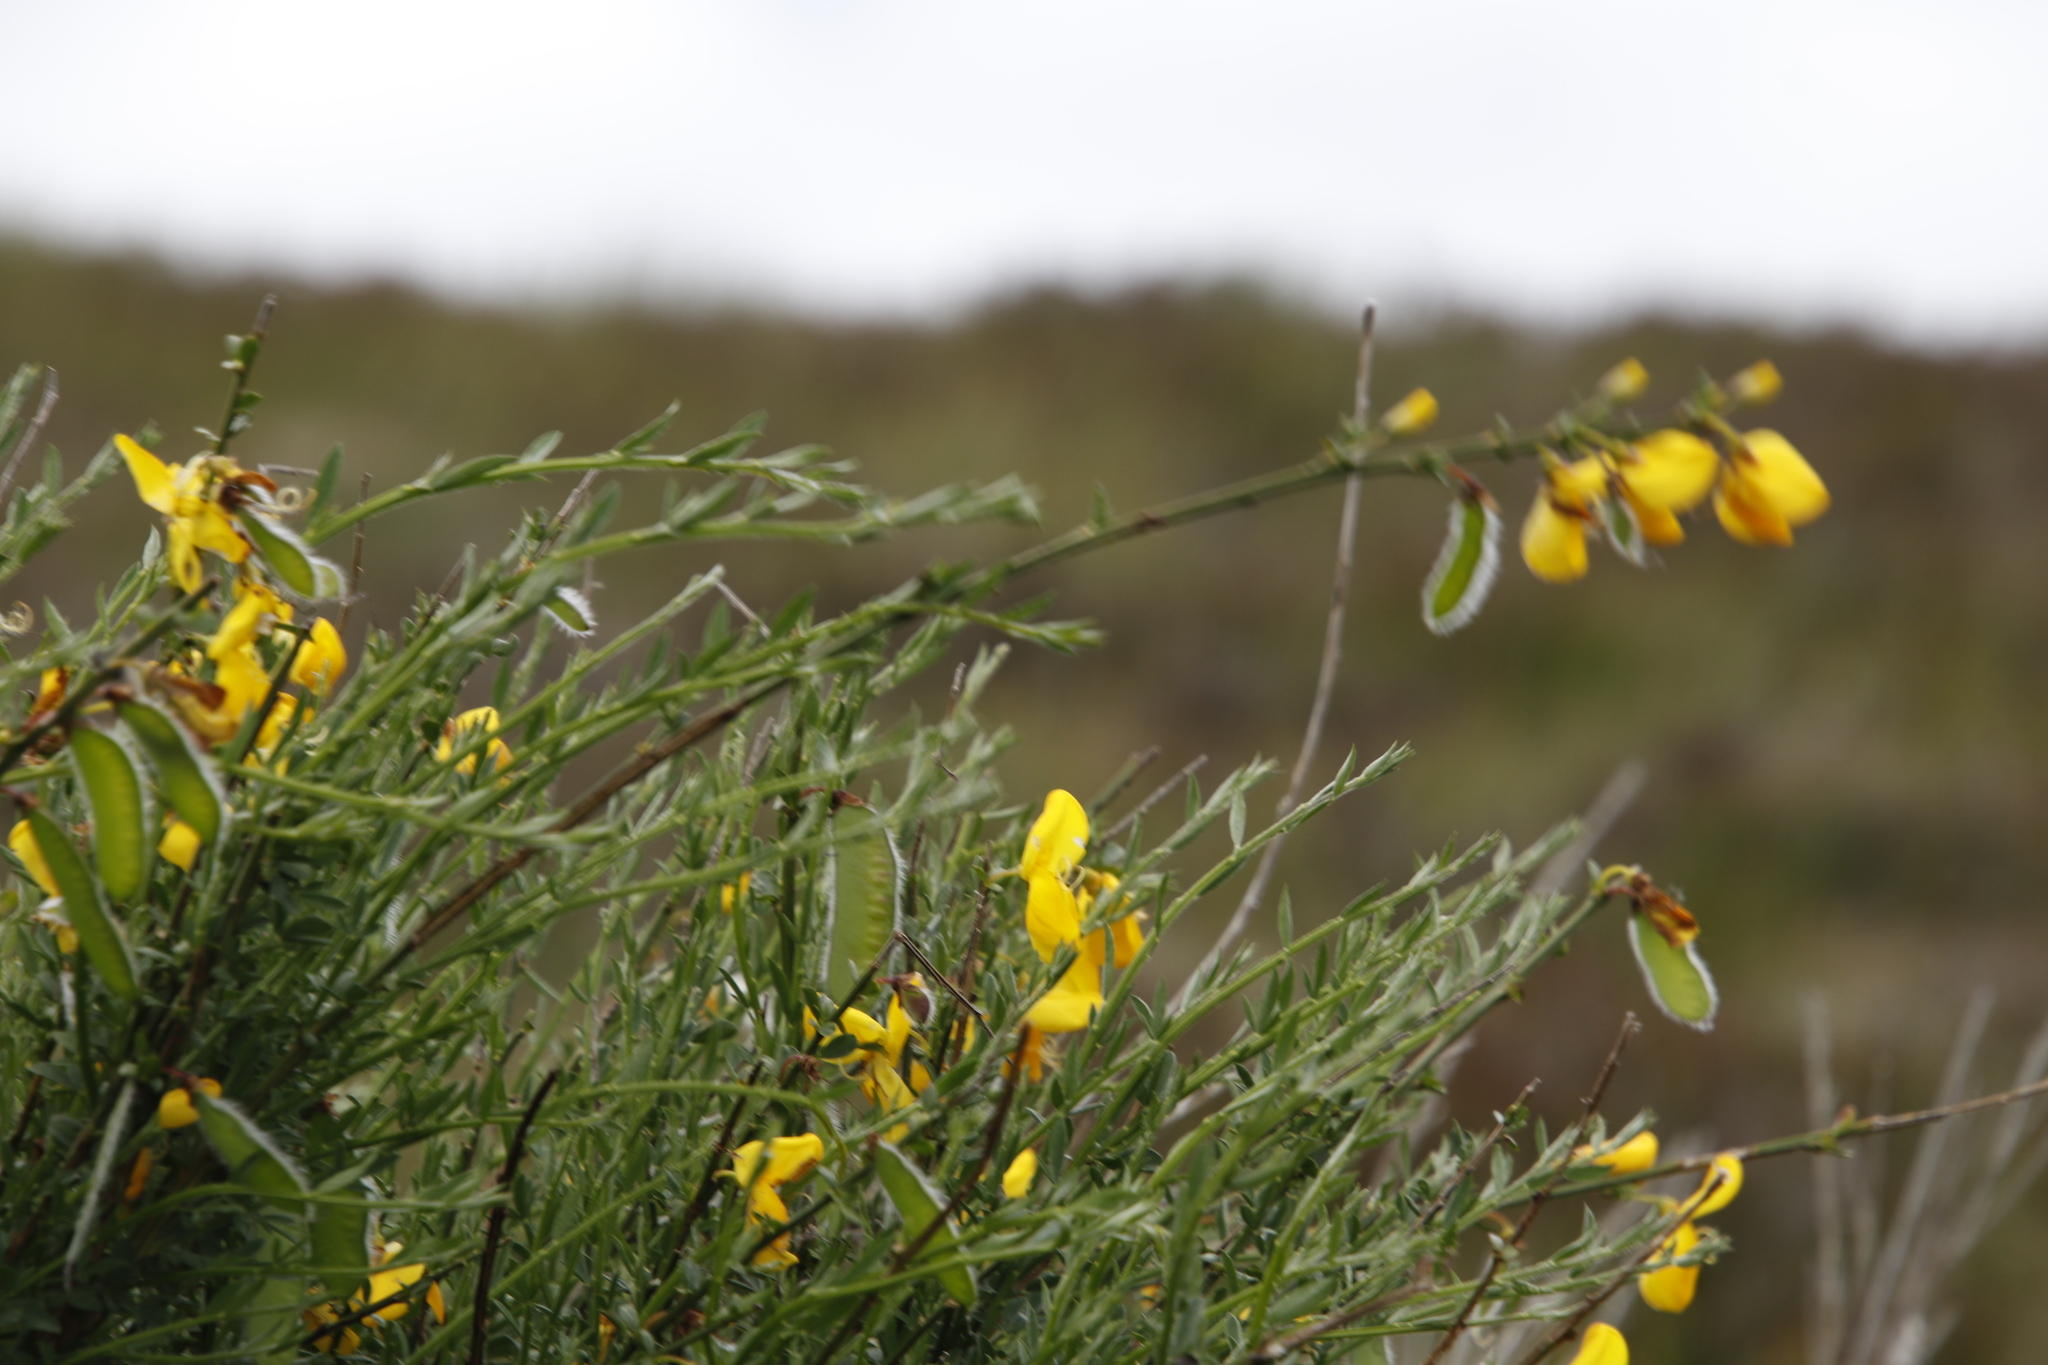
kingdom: Plantae
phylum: Tracheophyta
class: Magnoliopsida
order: Fabales
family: Fabaceae
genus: Cytisus
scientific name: Cytisus scoparius
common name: Scotch broom
